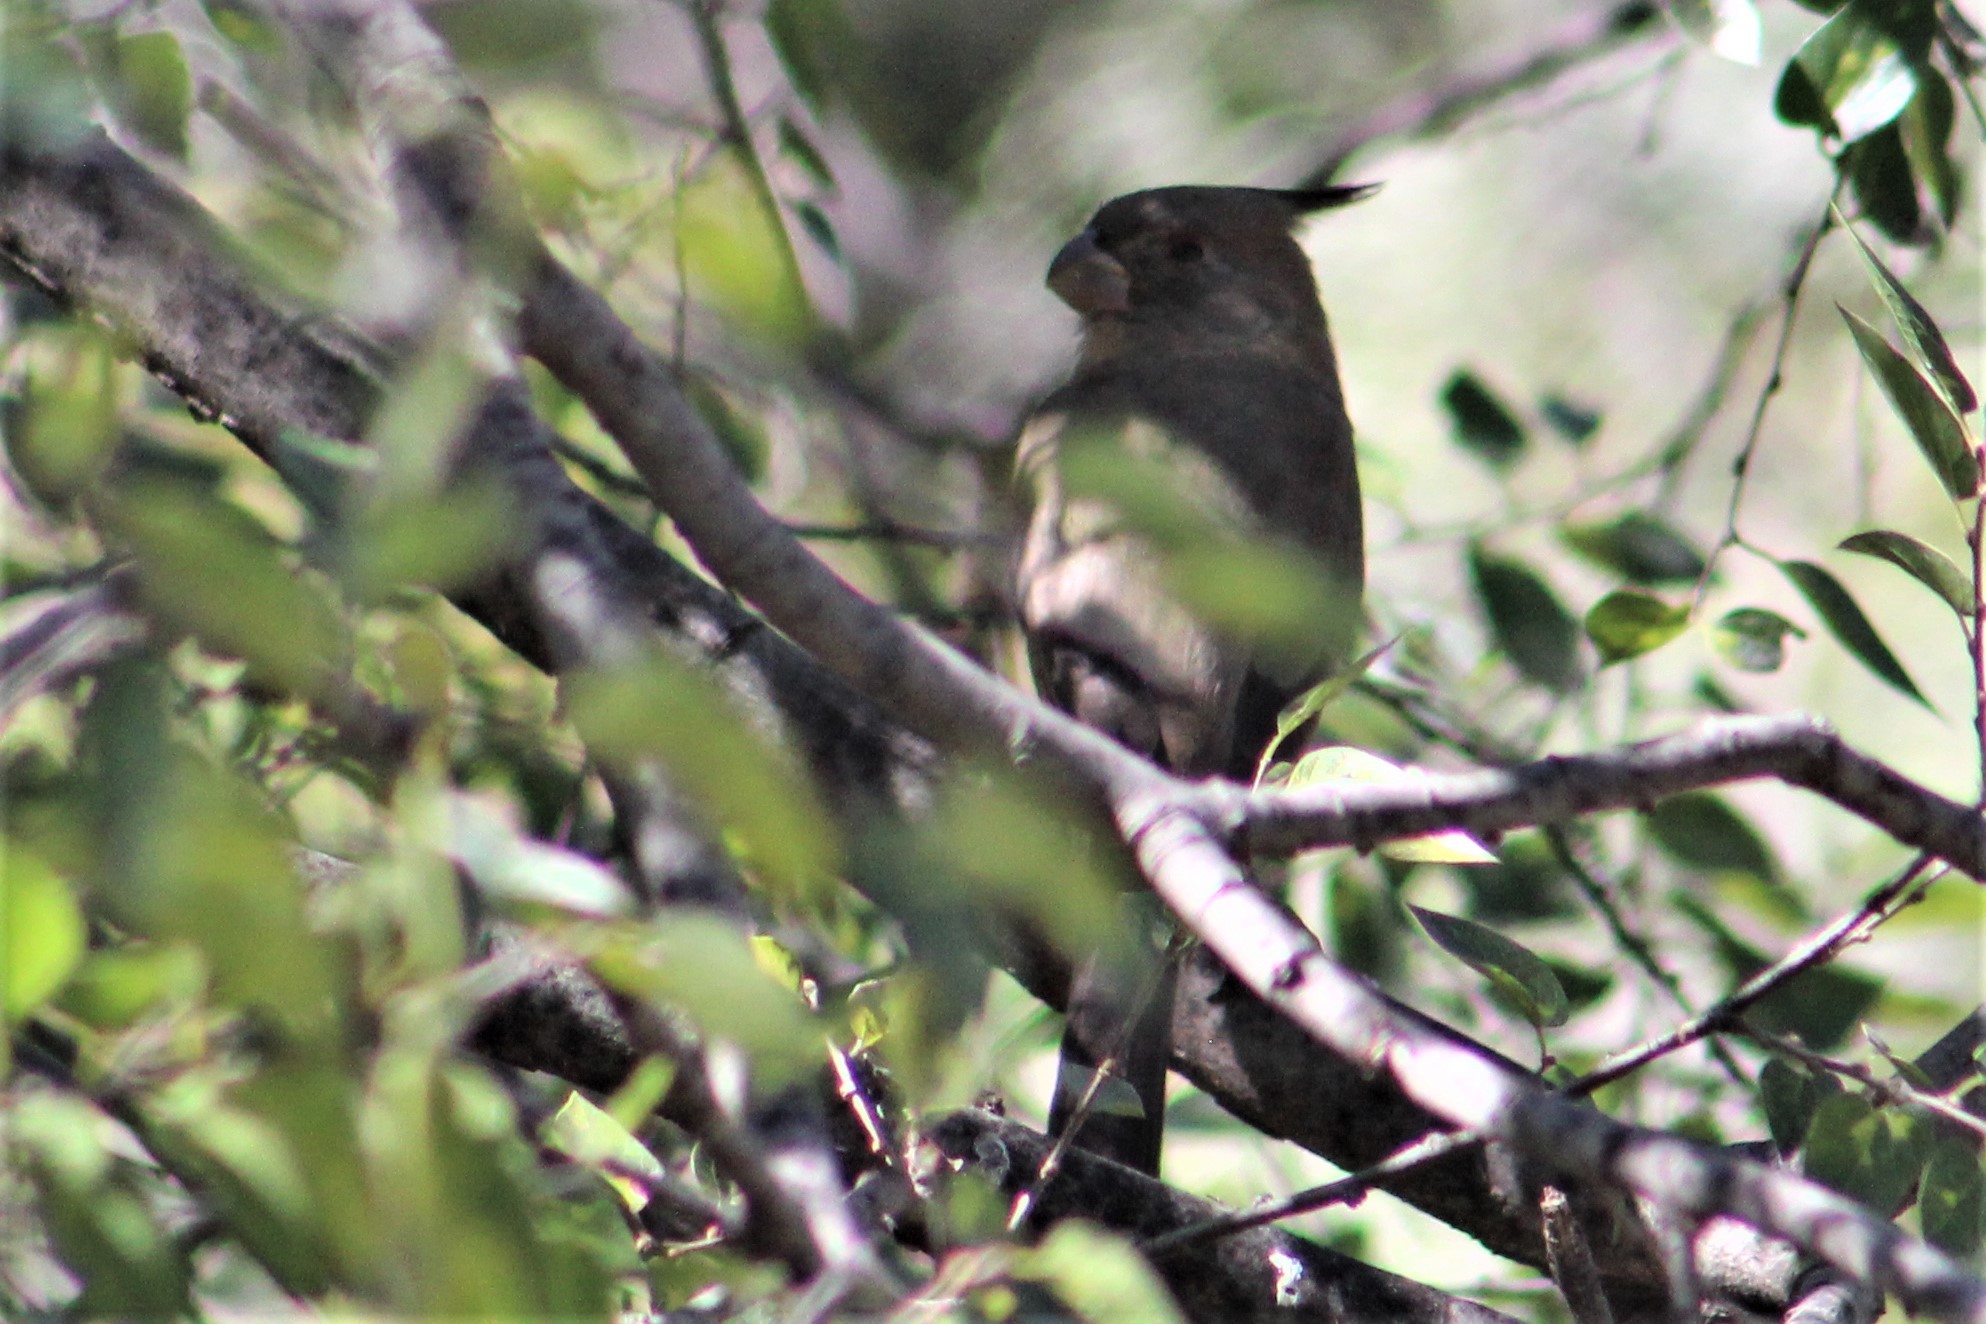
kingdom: Animalia
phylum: Chordata
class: Aves
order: Passeriformes
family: Cardinalidae
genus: Cardinalis
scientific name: Cardinalis sinuatus
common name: Pyrrhuloxia
